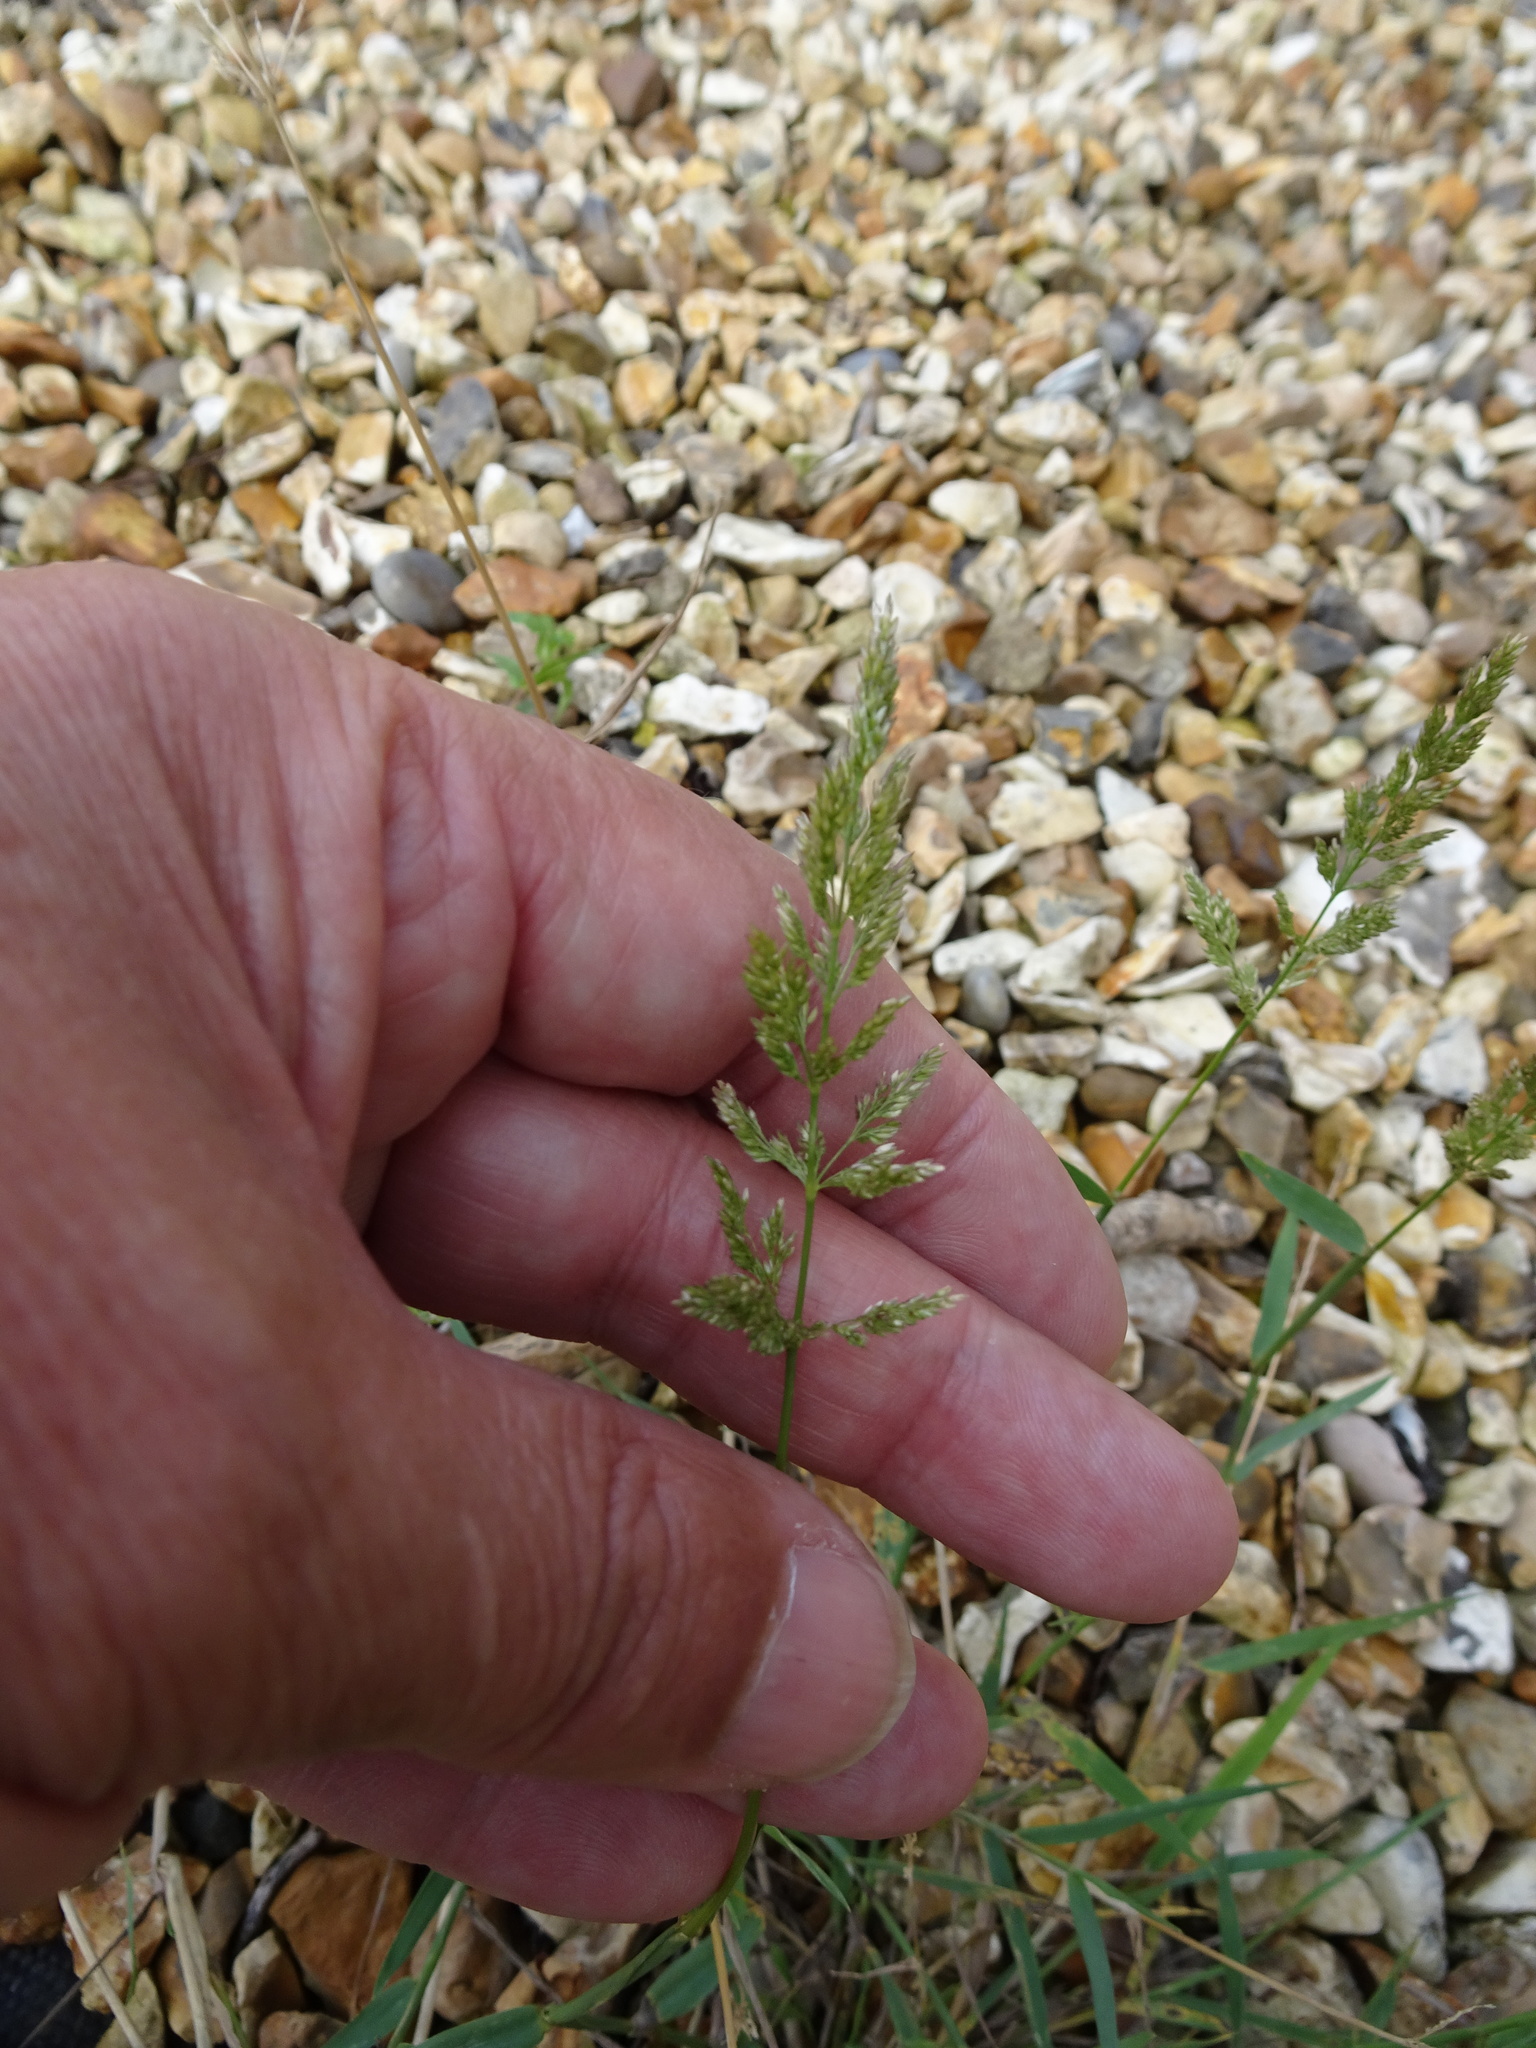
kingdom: Plantae
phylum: Tracheophyta
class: Liliopsida
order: Poales
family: Poaceae
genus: Polypogon
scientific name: Polypogon viridis
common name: Water bent
